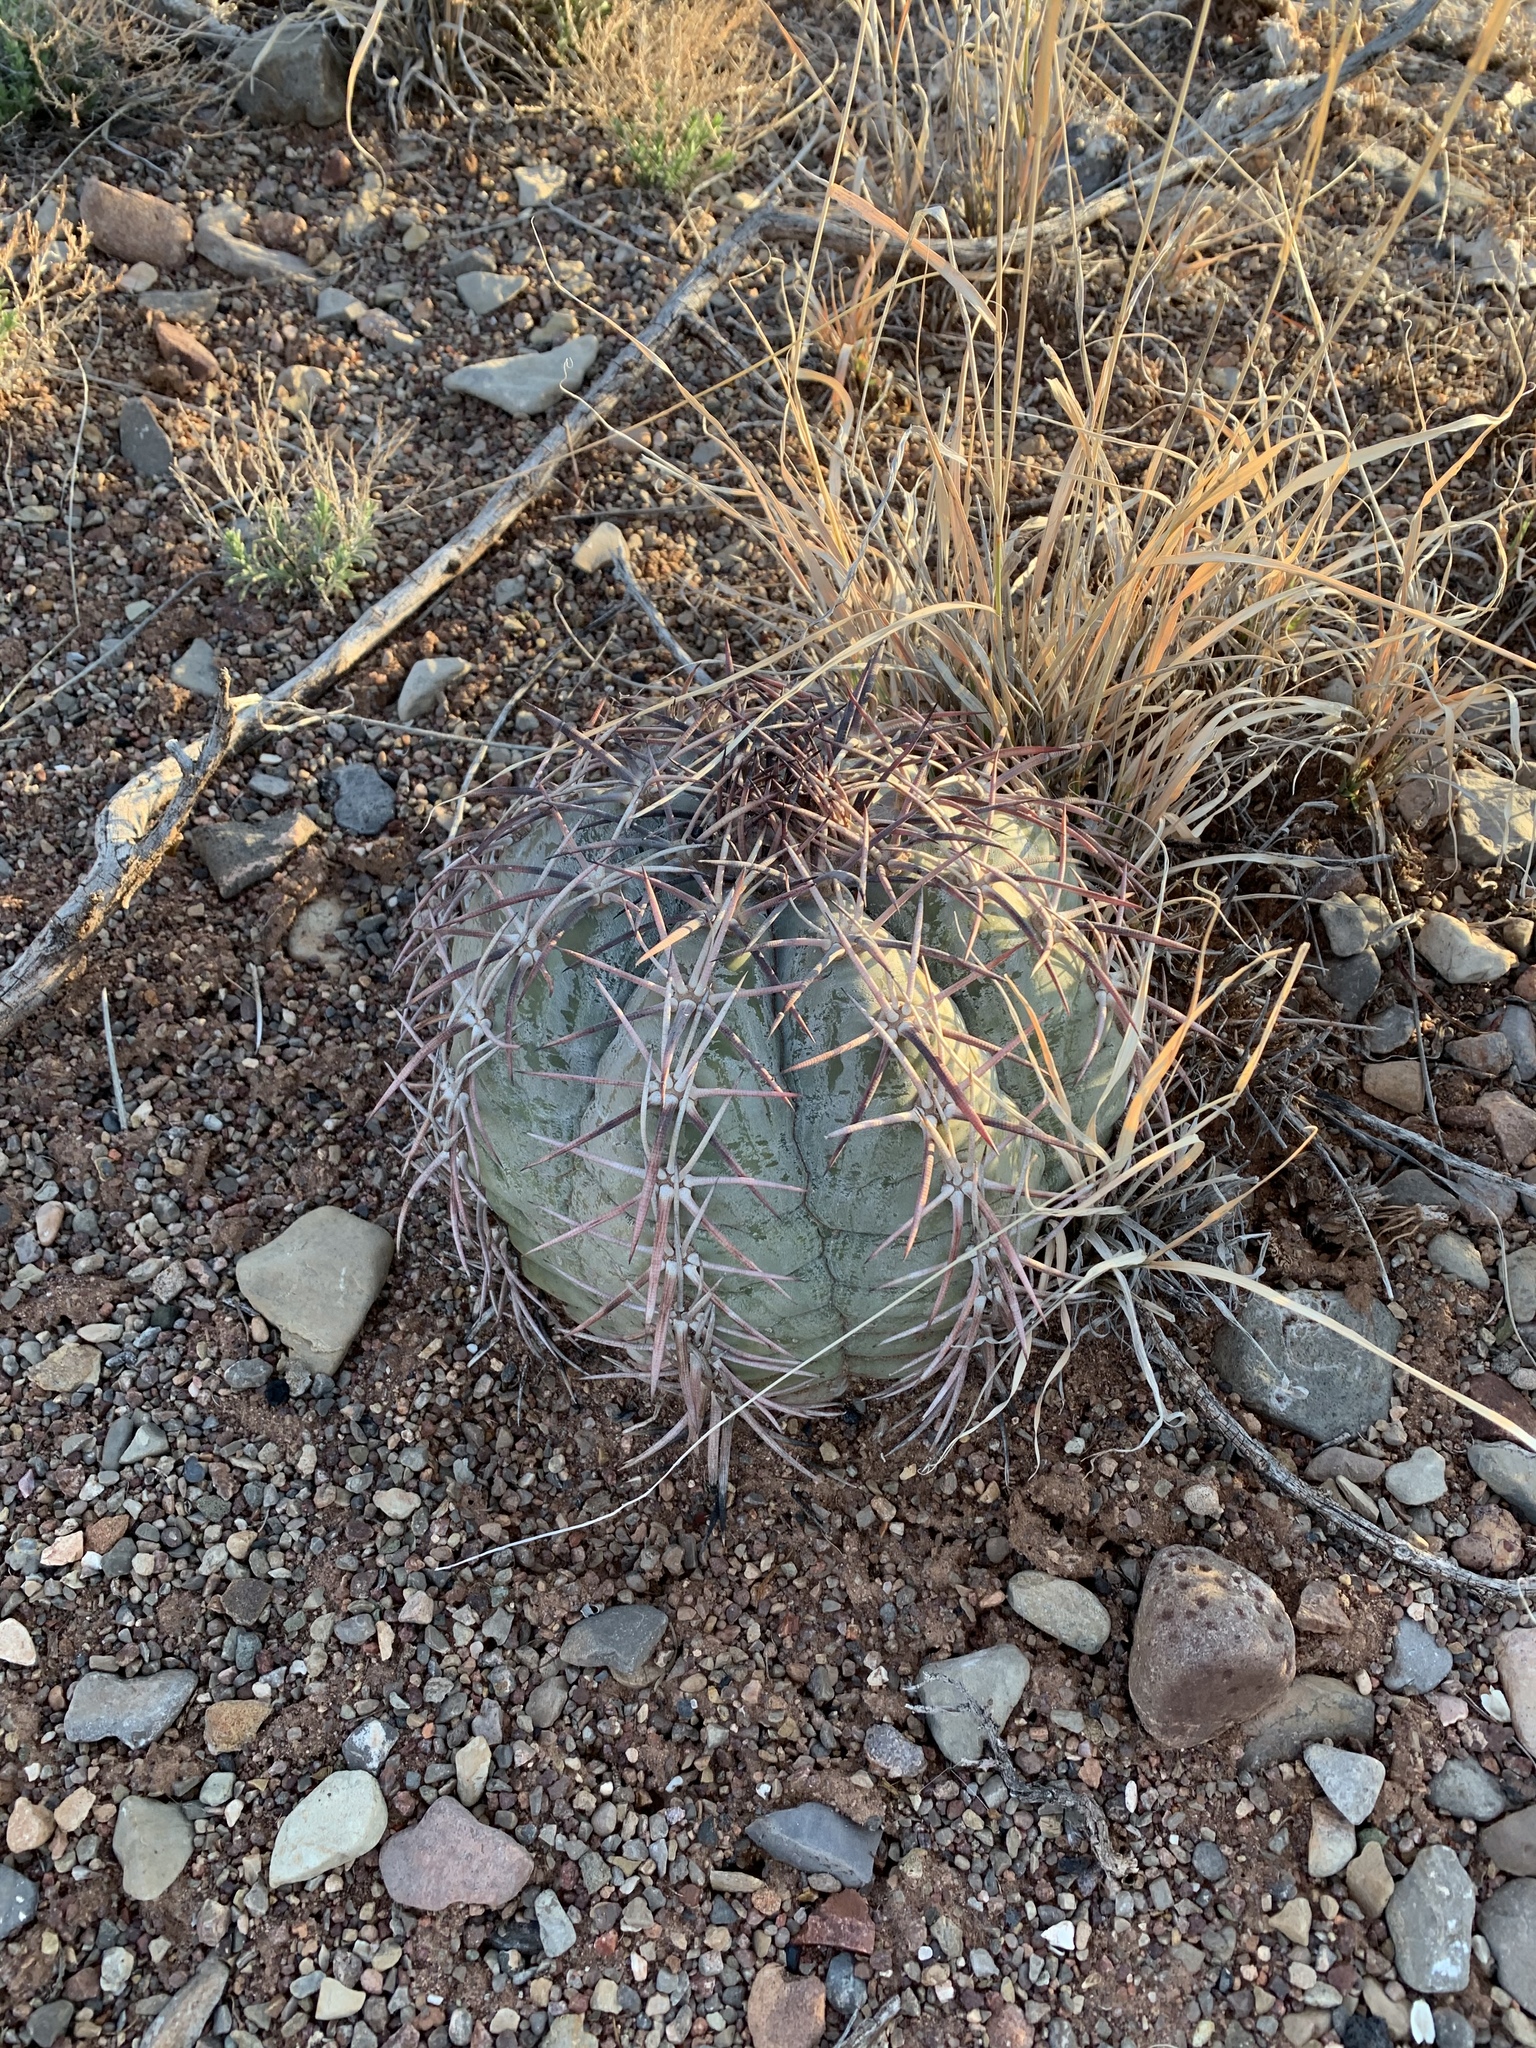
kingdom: Plantae
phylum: Tracheophyta
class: Magnoliopsida
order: Caryophyllales
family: Cactaceae
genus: Echinocactus
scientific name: Echinocactus horizonthalonius
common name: Devilshead
